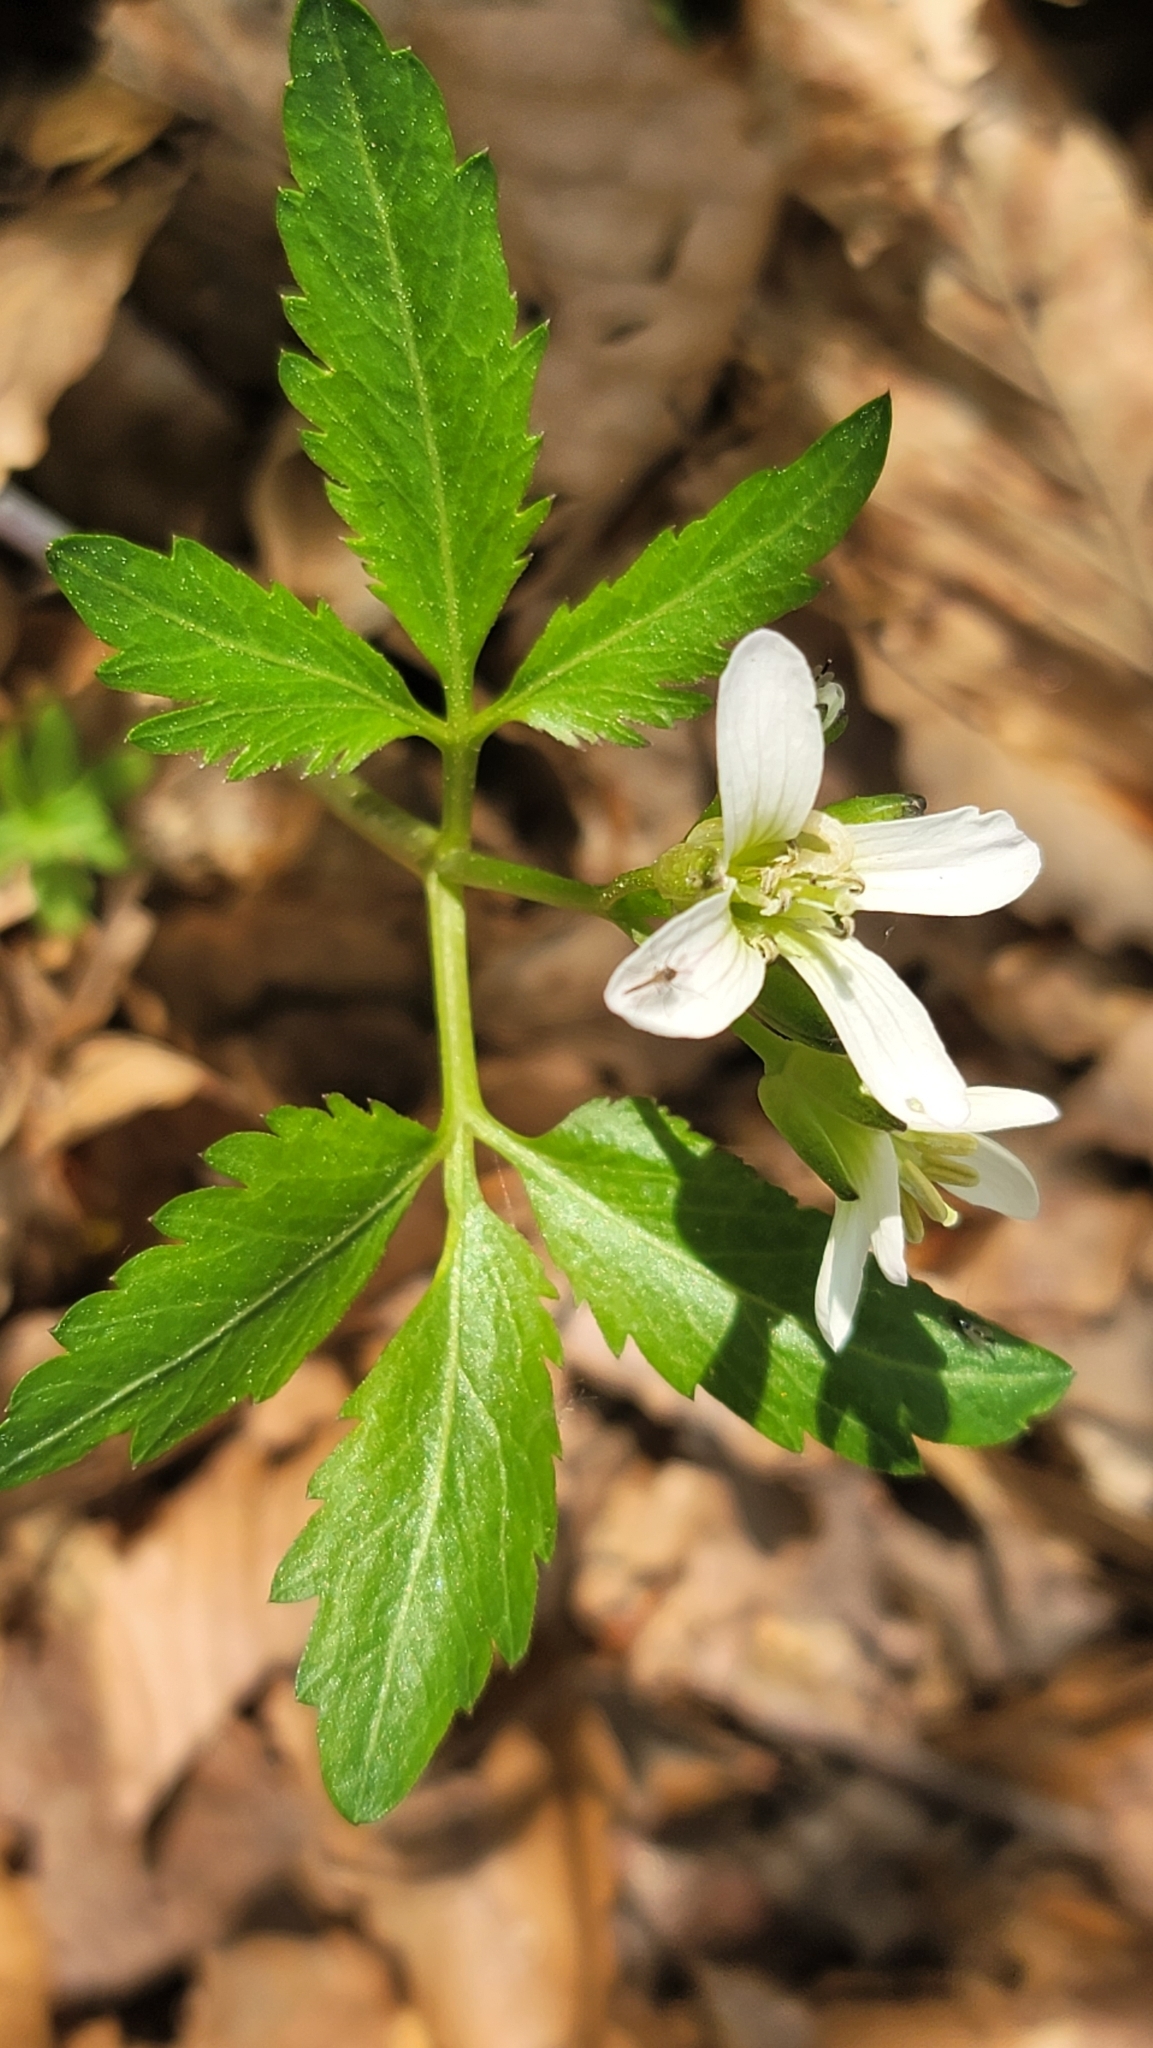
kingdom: Plantae
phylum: Tracheophyta
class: Magnoliopsida
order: Brassicales
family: Brassicaceae
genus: Cardamine
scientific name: Cardamine diphylla
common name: Broad-leaved toothwort
